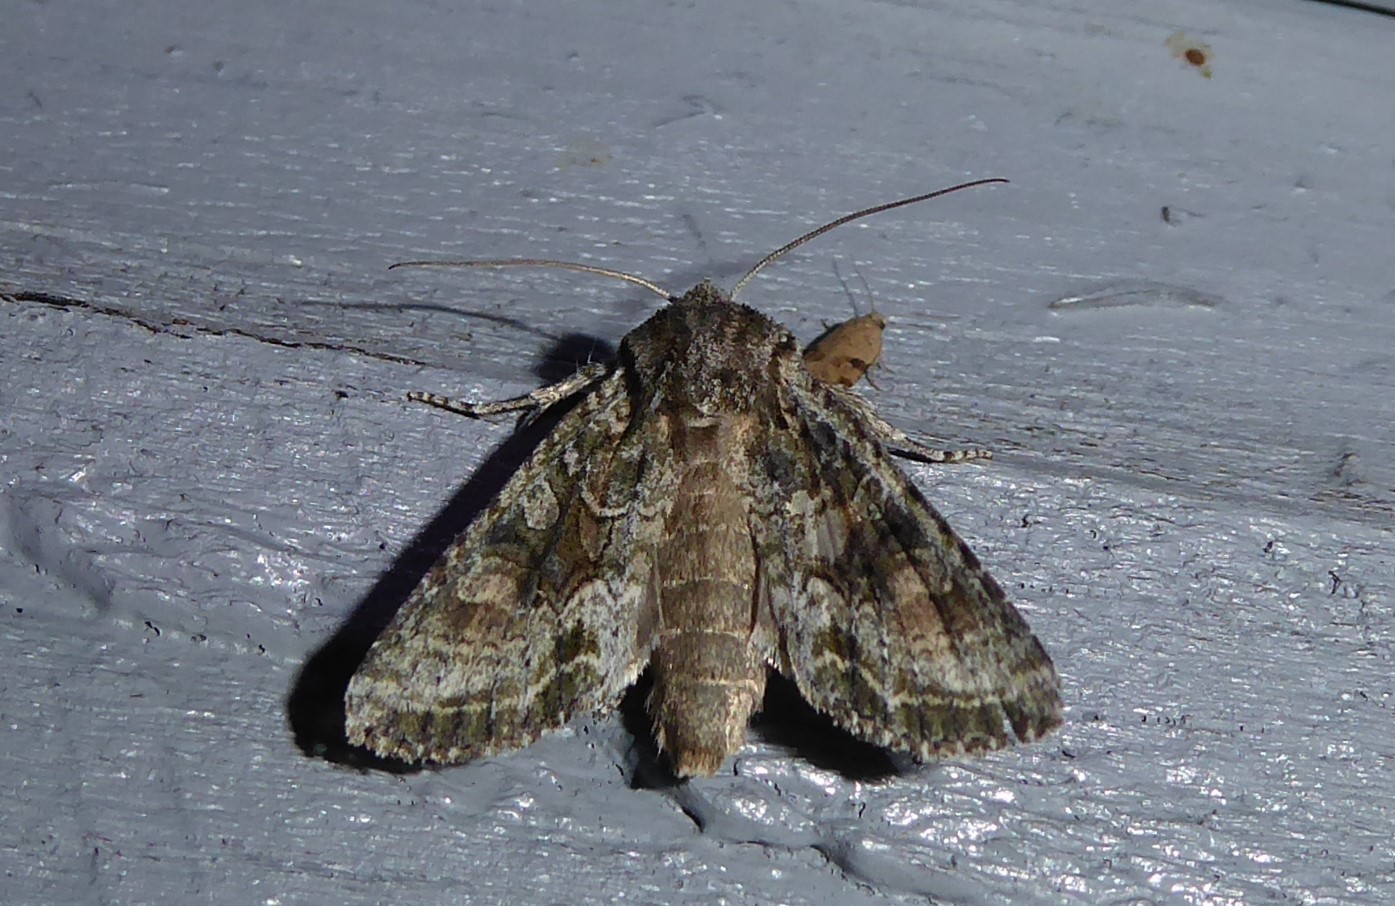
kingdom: Animalia
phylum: Arthropoda
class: Insecta
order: Lepidoptera
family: Noctuidae
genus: Ichneutica
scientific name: Ichneutica mutans
